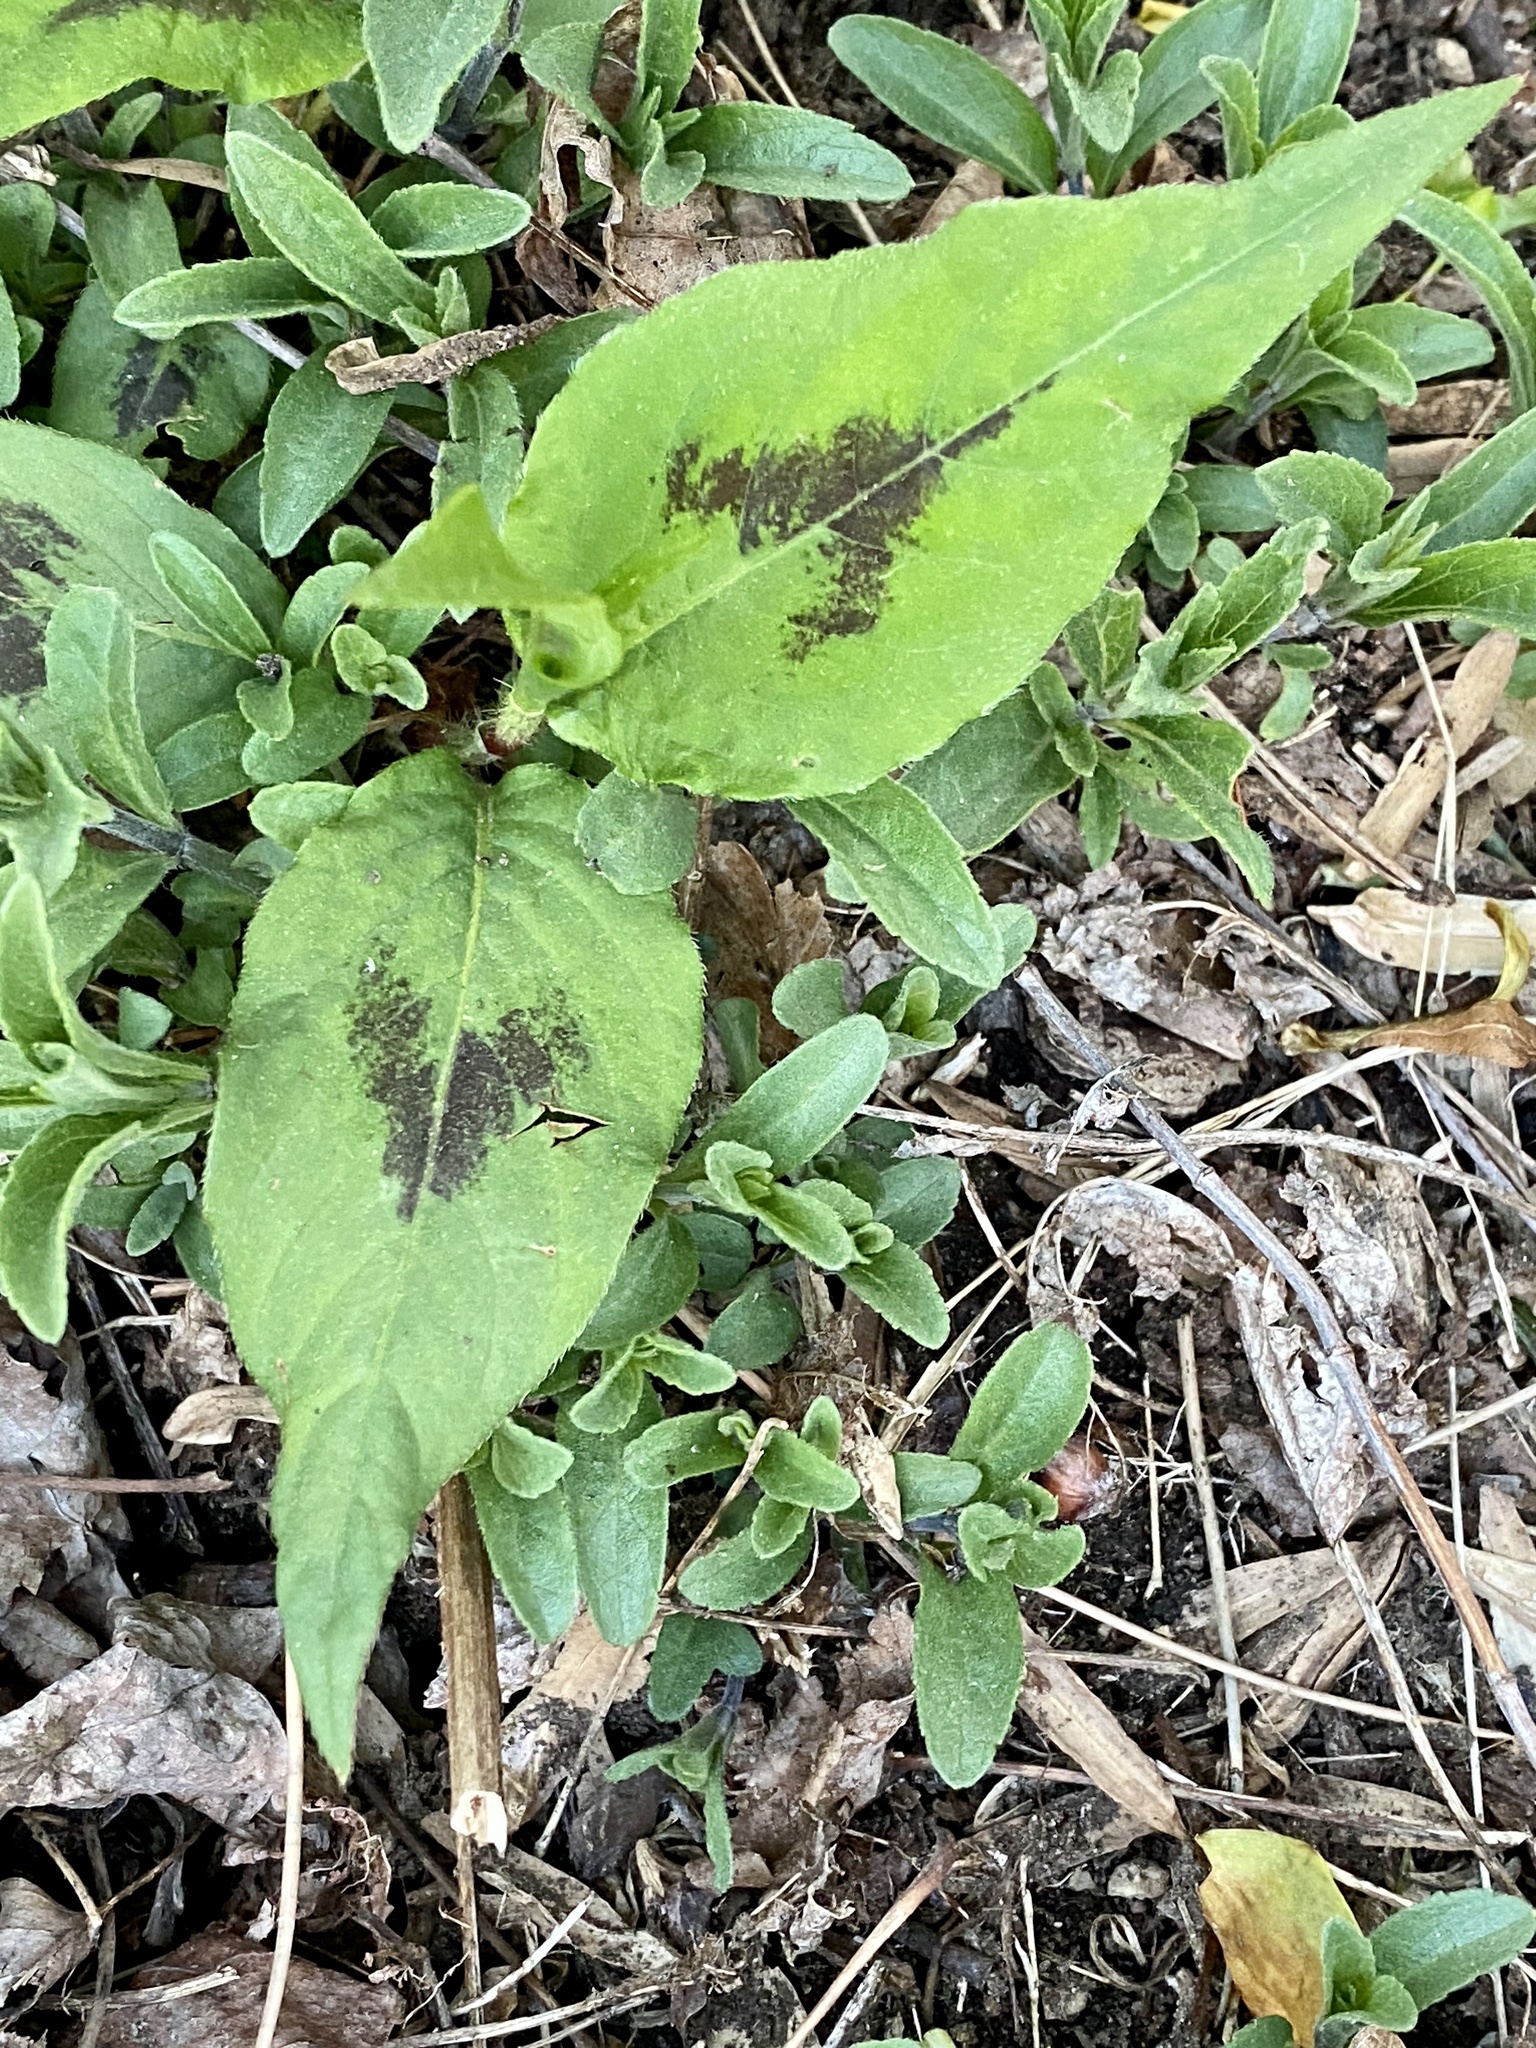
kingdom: Plantae
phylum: Tracheophyta
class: Magnoliopsida
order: Caryophyllales
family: Polygonaceae
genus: Persicaria
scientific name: Persicaria virginiana
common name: Jumpseed
